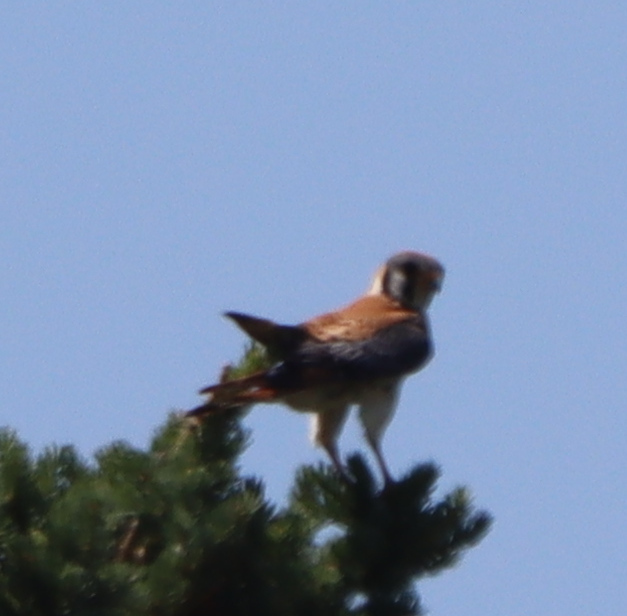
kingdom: Animalia
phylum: Chordata
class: Aves
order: Falconiformes
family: Falconidae
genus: Falco
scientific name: Falco sparverius
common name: American kestrel
